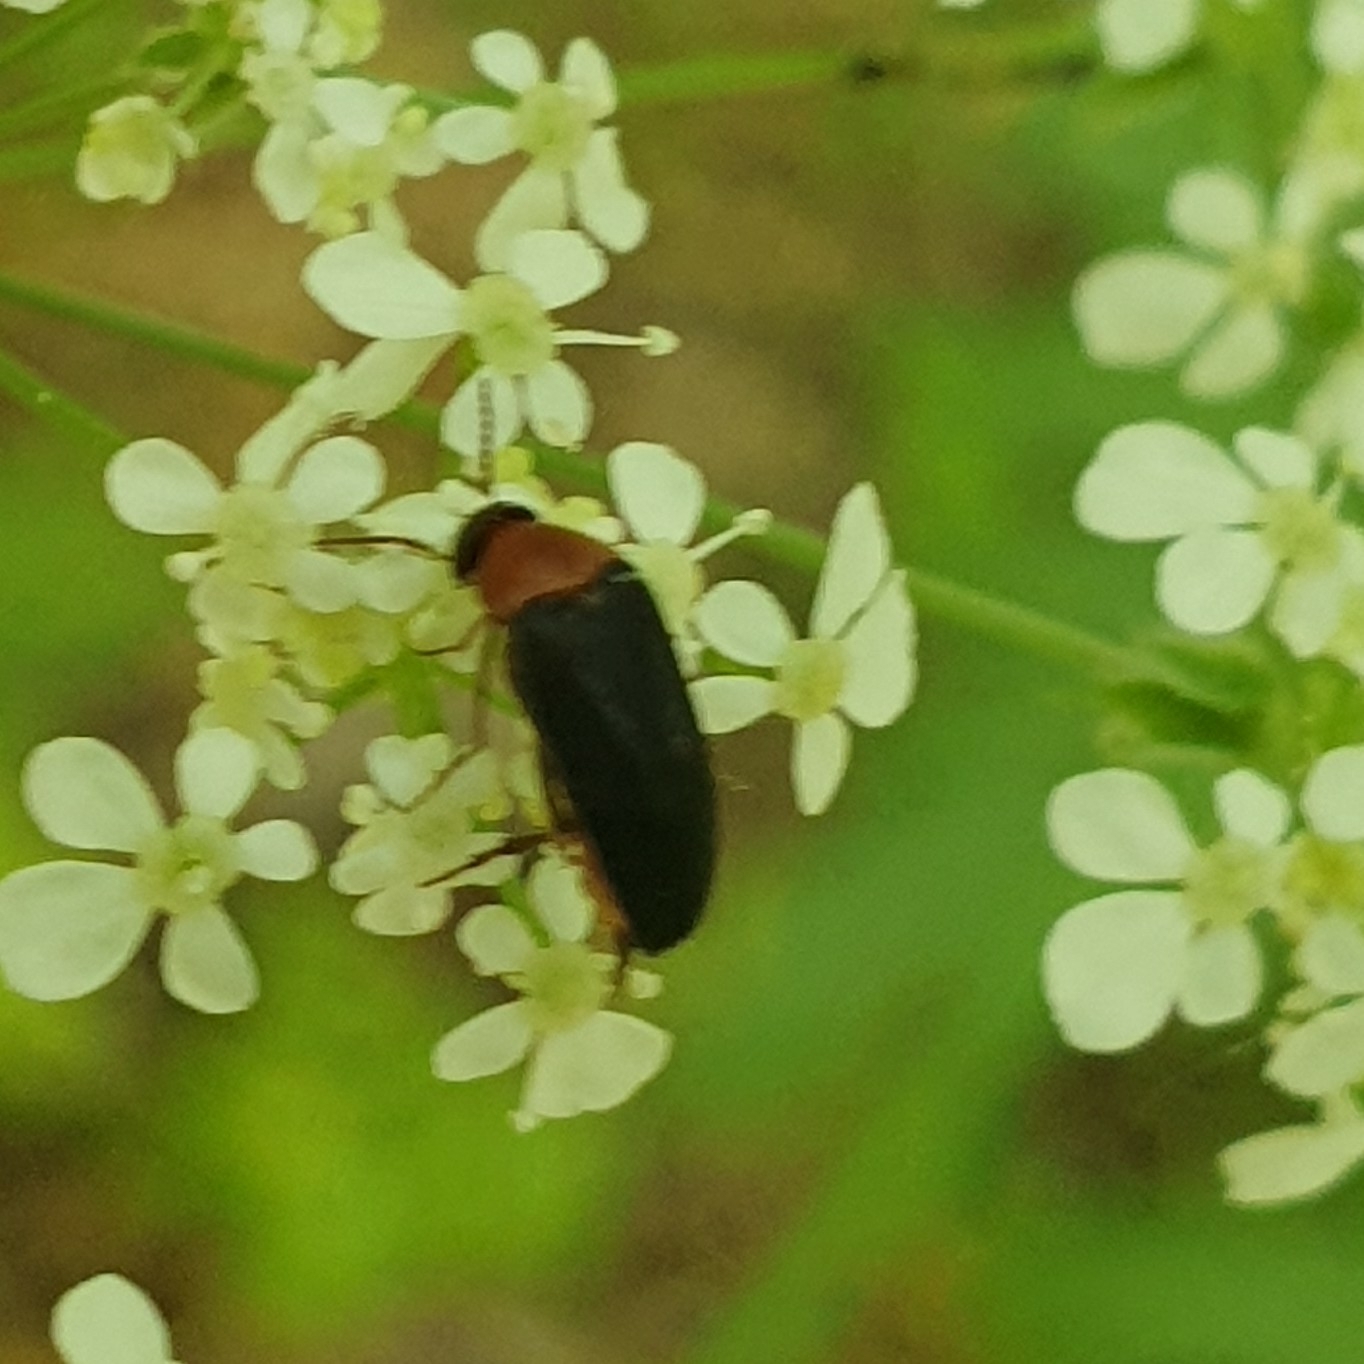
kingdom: Animalia
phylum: Arthropoda
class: Insecta
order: Coleoptera
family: Mordellidae
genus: Mordellochroa
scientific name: Mordellochroa abdominalis
